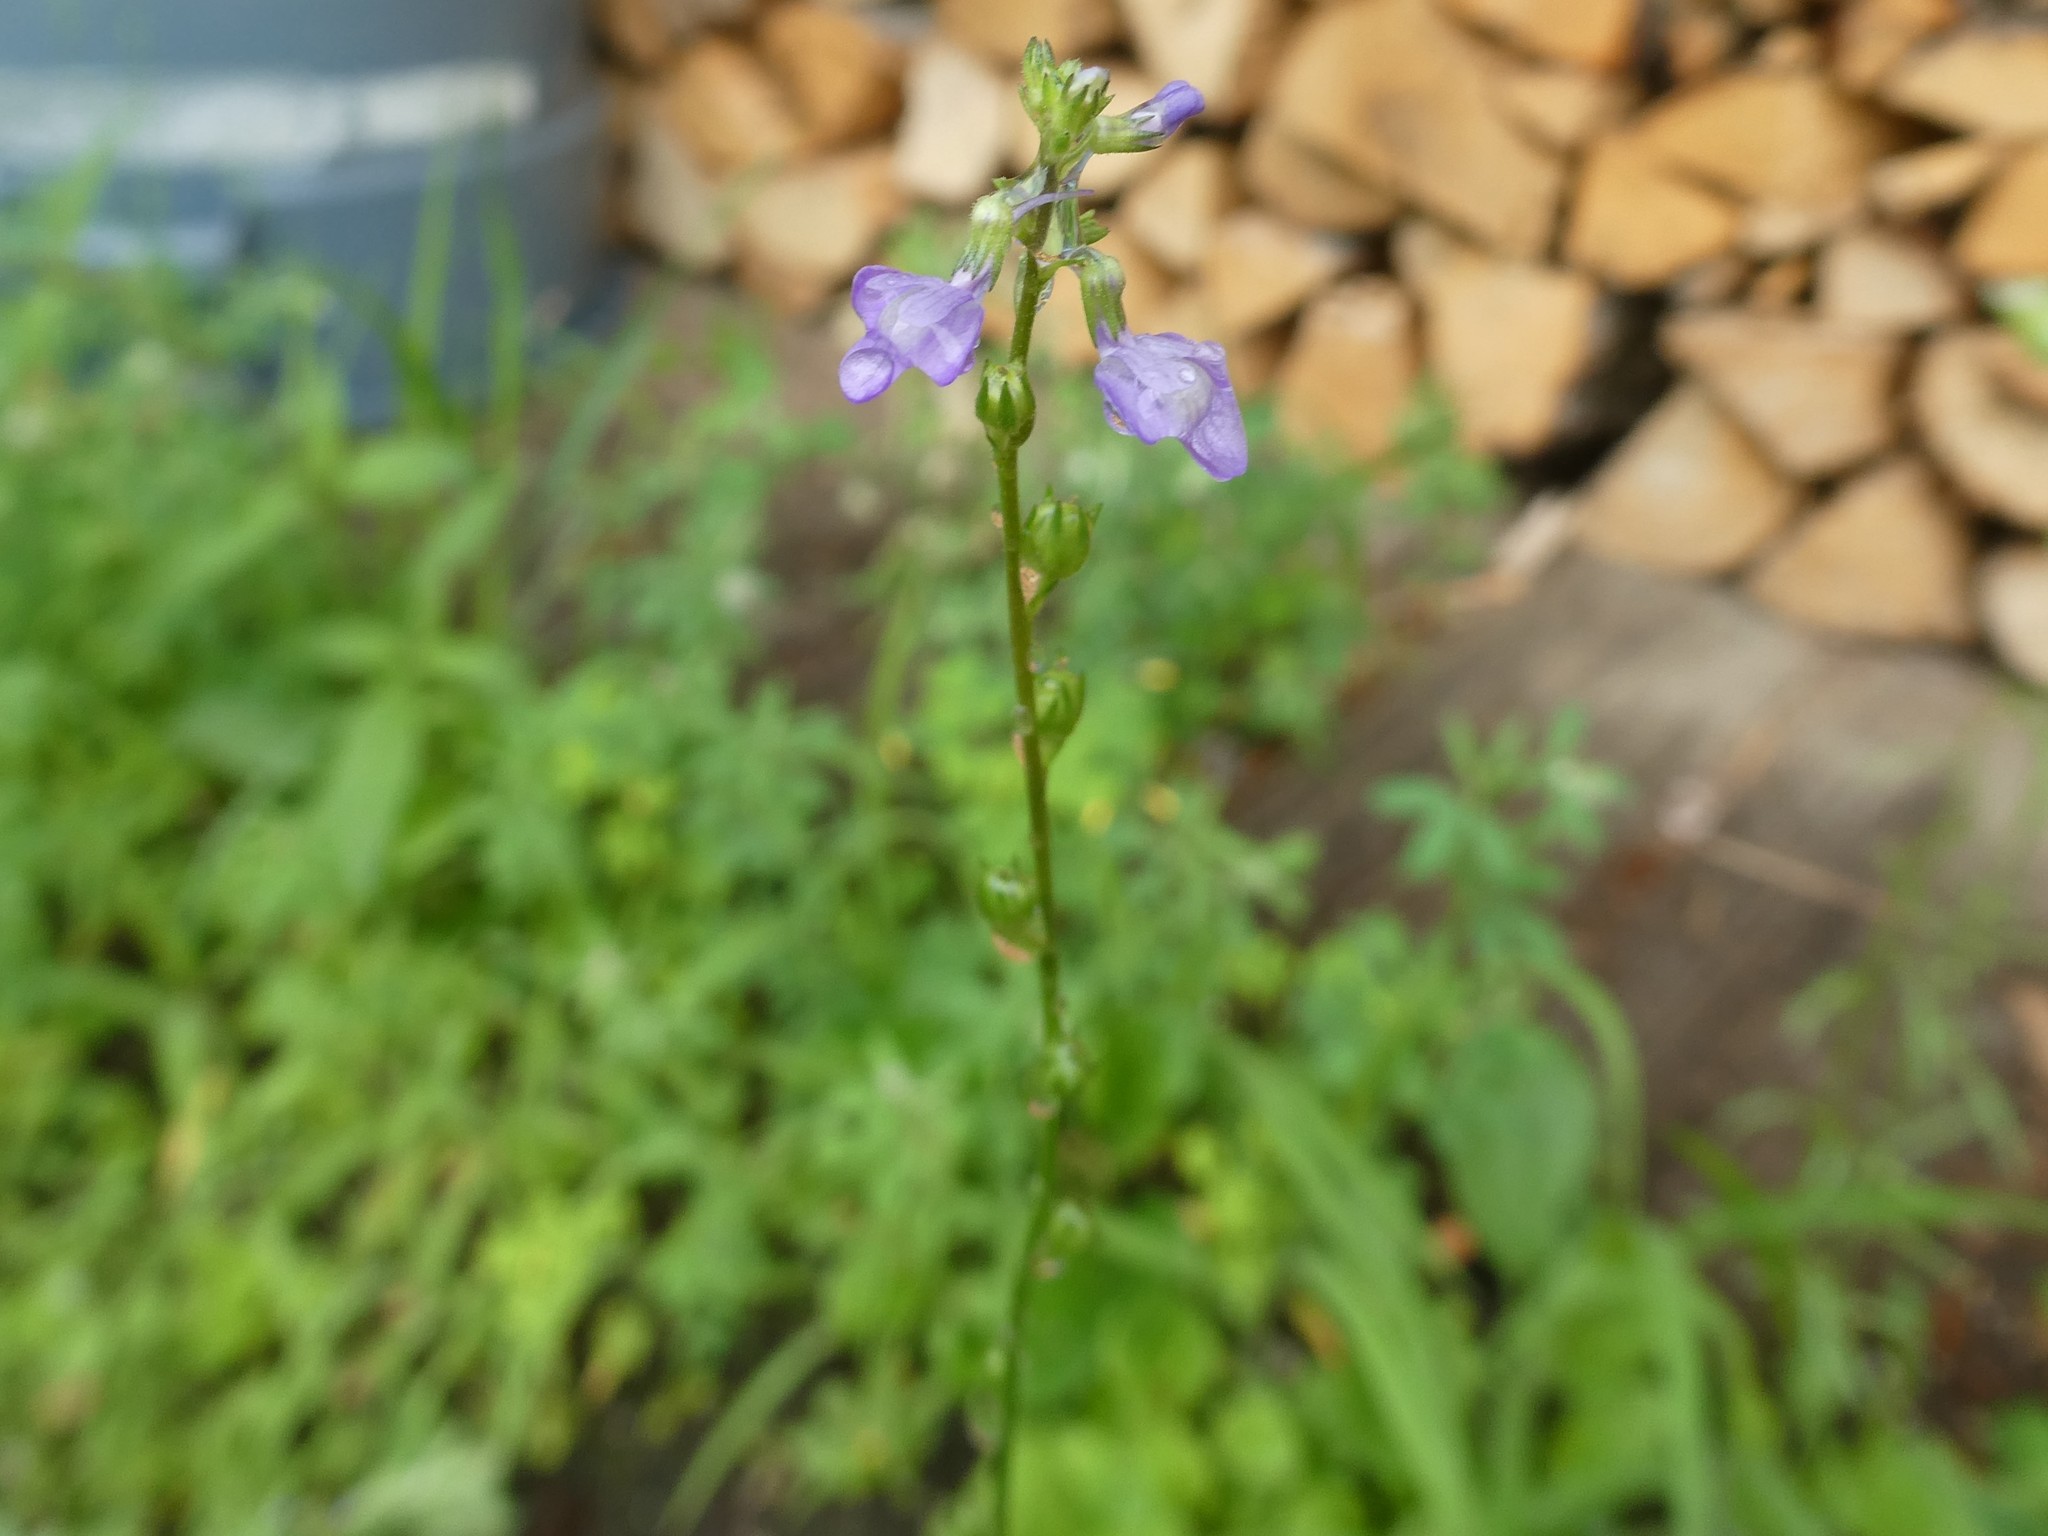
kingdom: Plantae
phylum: Tracheophyta
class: Magnoliopsida
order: Lamiales
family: Plantaginaceae
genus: Nuttallanthus
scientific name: Nuttallanthus canadensis
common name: Blue toadflax
